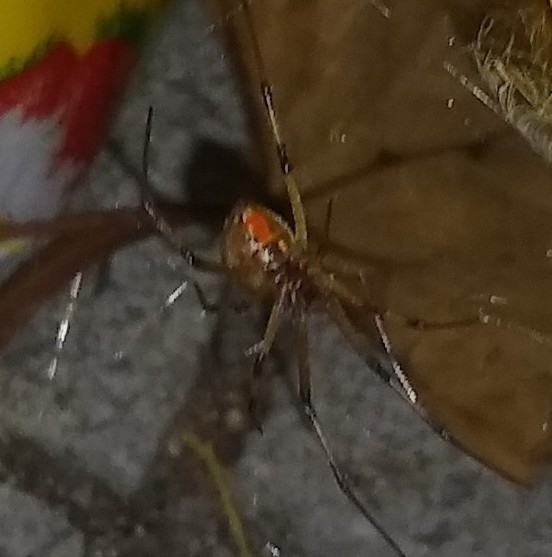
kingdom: Animalia
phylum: Arthropoda
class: Arachnida
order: Araneae
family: Theridiidae
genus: Latrodectus
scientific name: Latrodectus geometricus
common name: Brown widow spider
